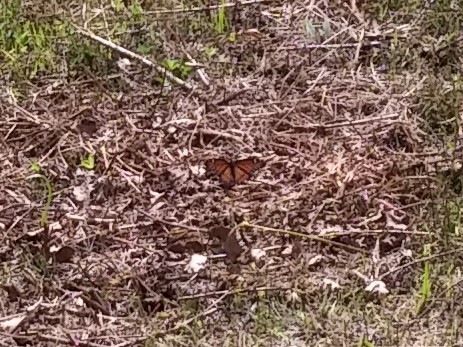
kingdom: Animalia
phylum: Arthropoda
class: Insecta
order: Lepidoptera
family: Nymphalidae
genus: Limenitis
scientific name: Limenitis archippus
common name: Viceroy
